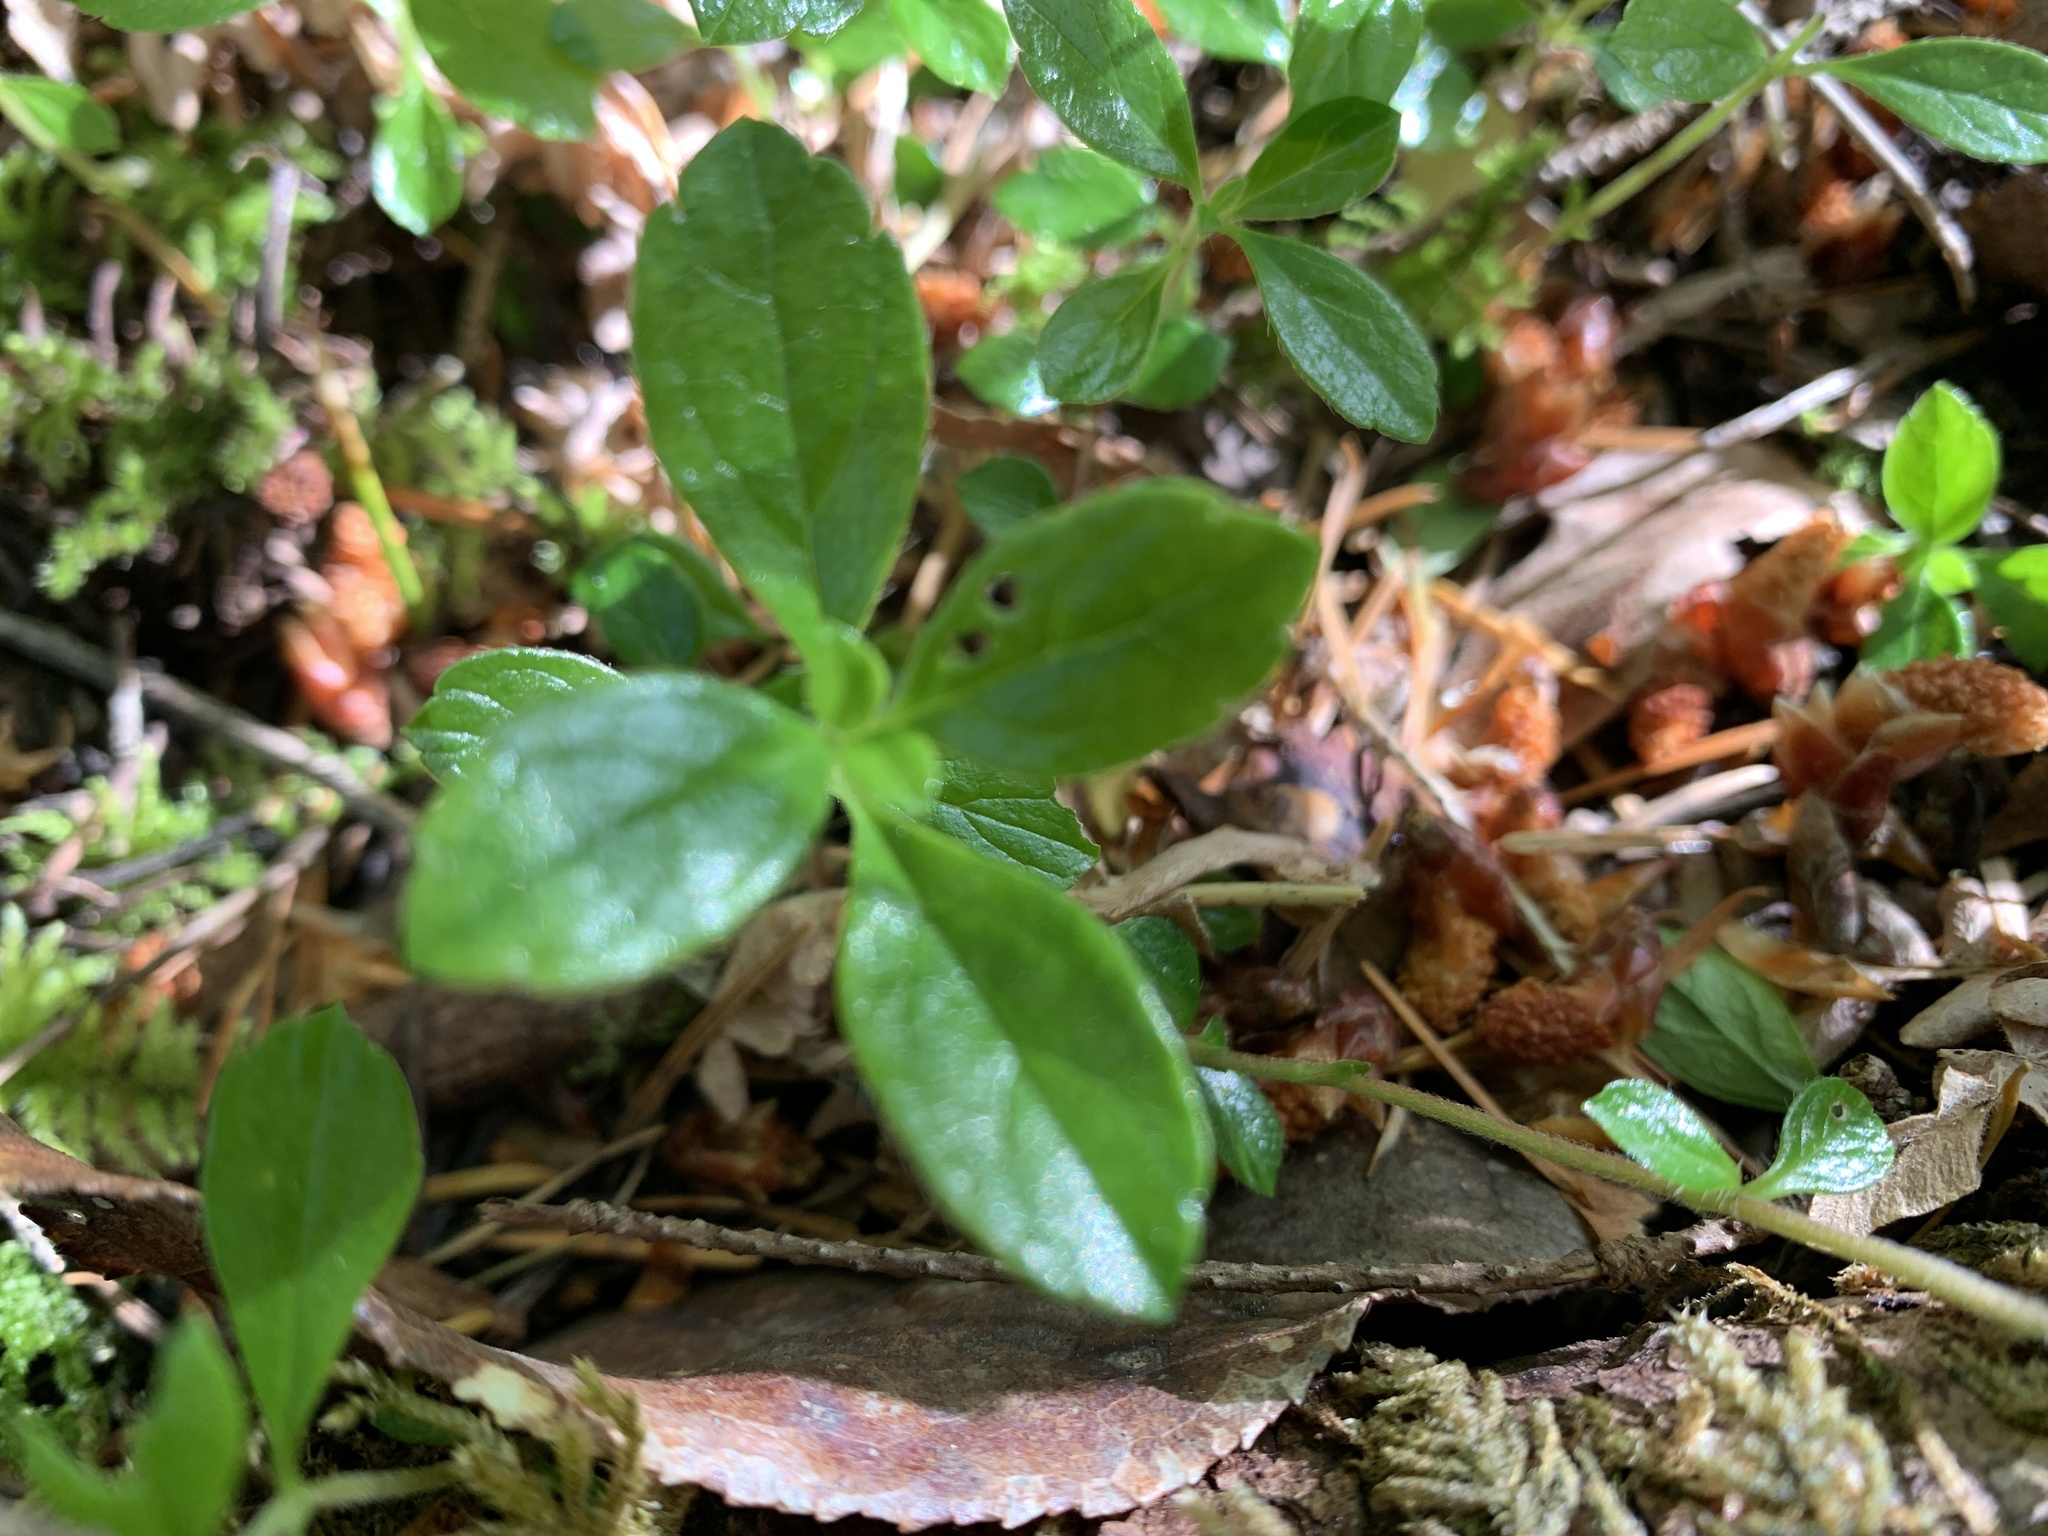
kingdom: Plantae
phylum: Tracheophyta
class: Magnoliopsida
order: Dipsacales
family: Caprifoliaceae
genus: Linnaea
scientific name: Linnaea borealis
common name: Twinflower
